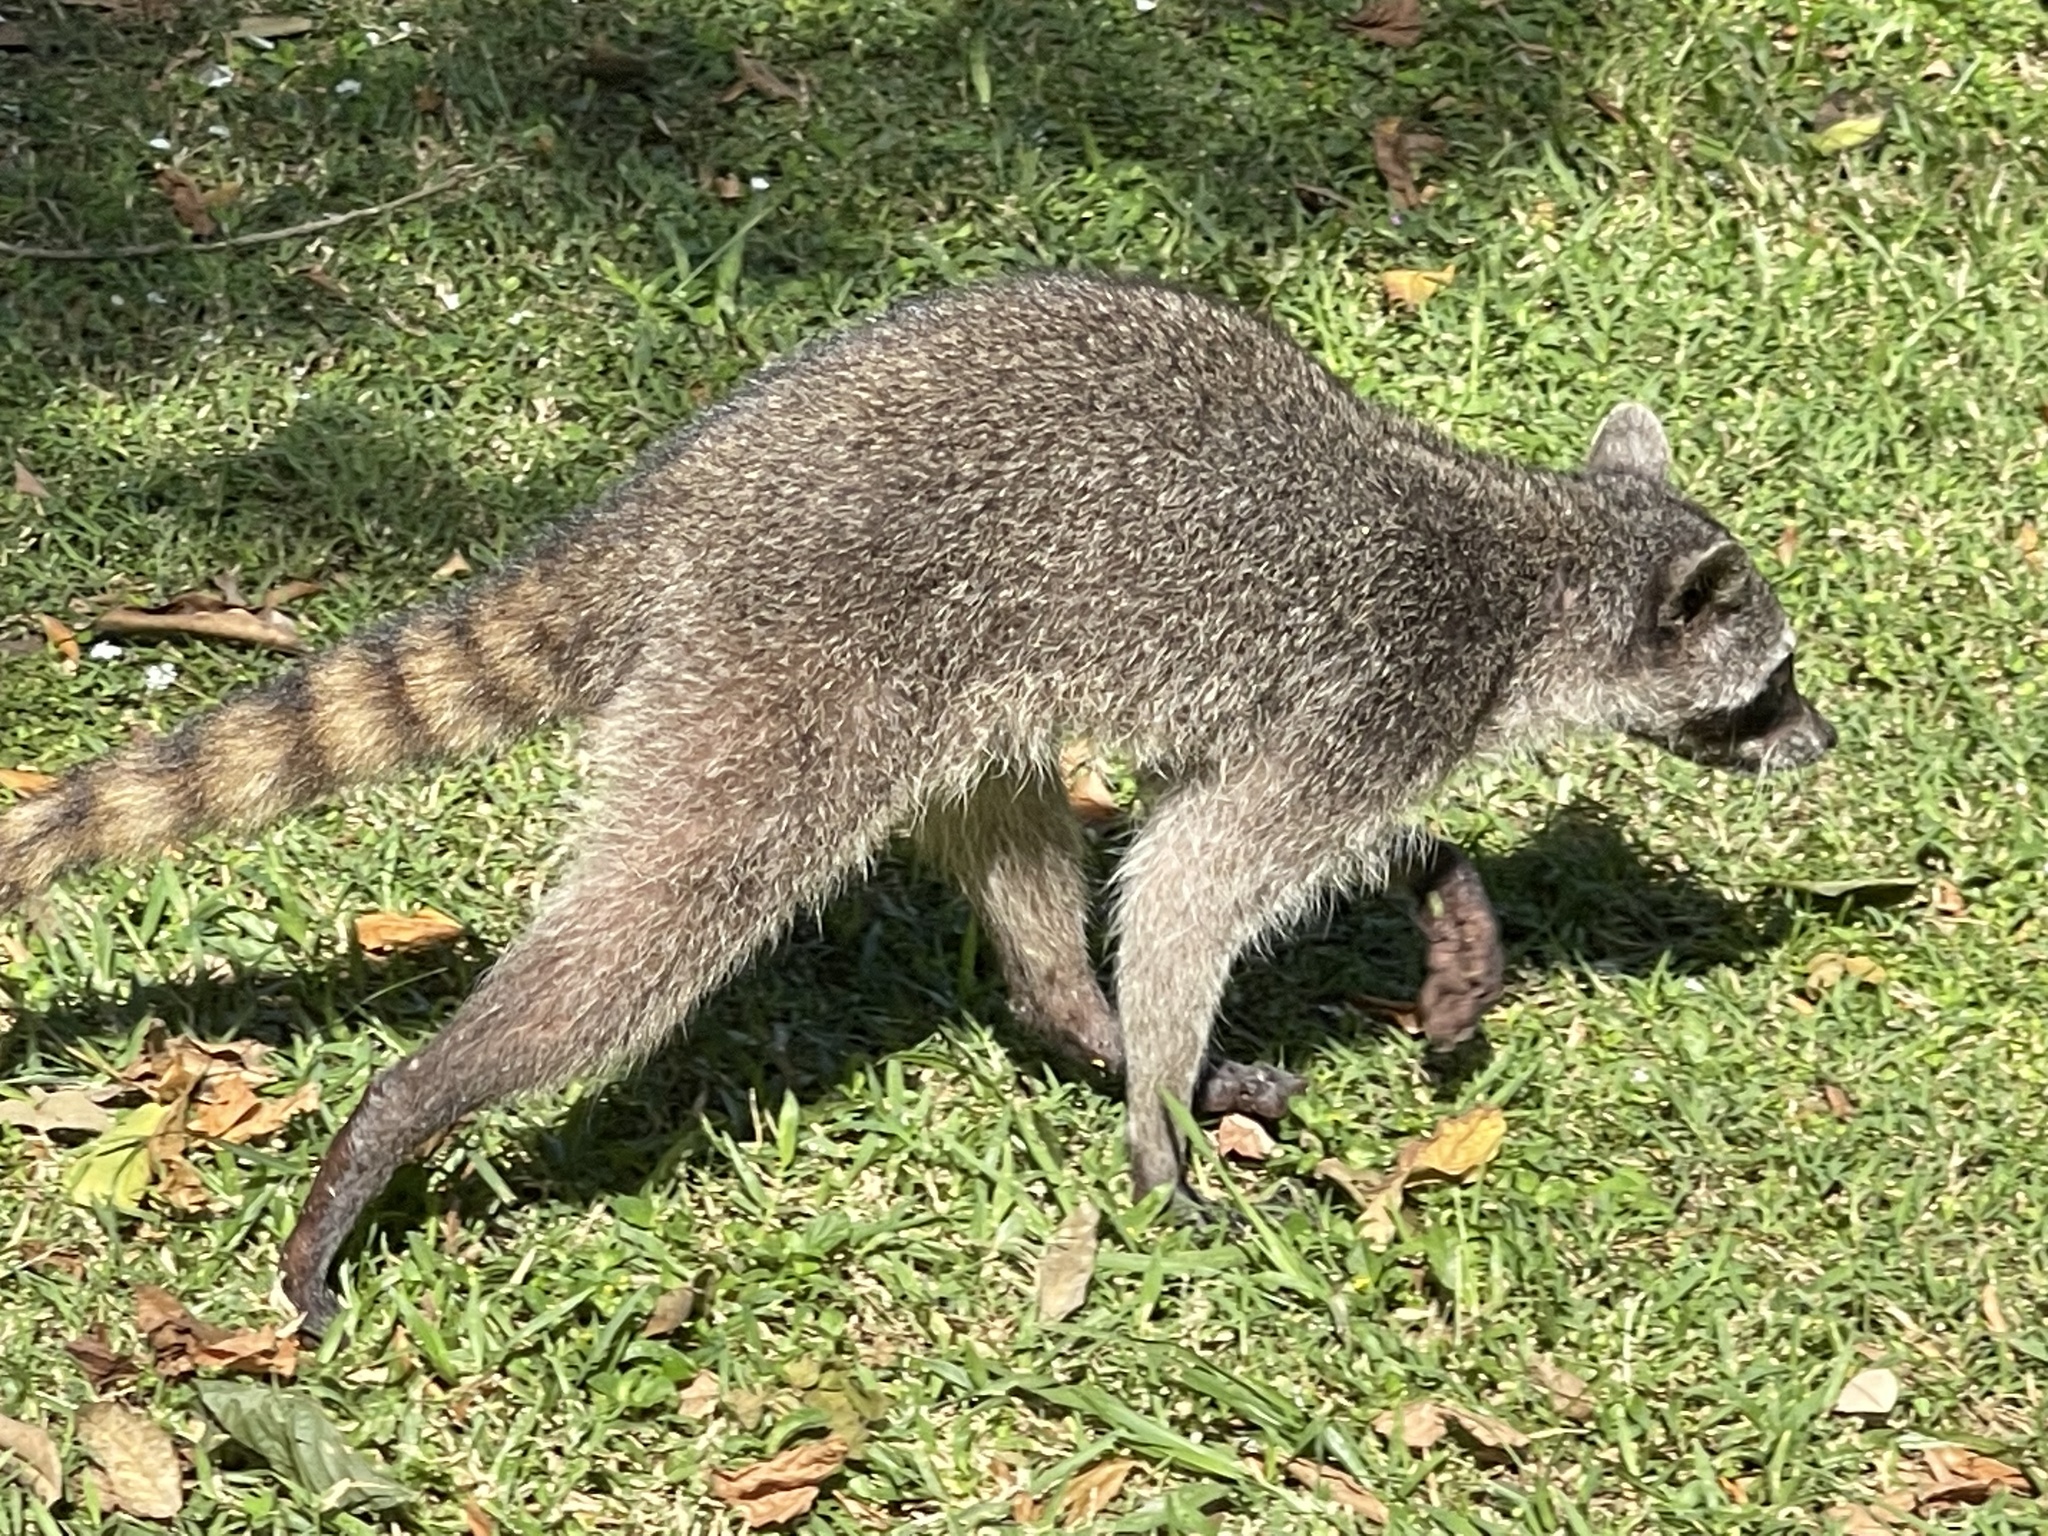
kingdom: Animalia
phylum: Chordata
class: Mammalia
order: Carnivora
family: Procyonidae
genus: Procyon
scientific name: Procyon lotor
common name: Raccoon
